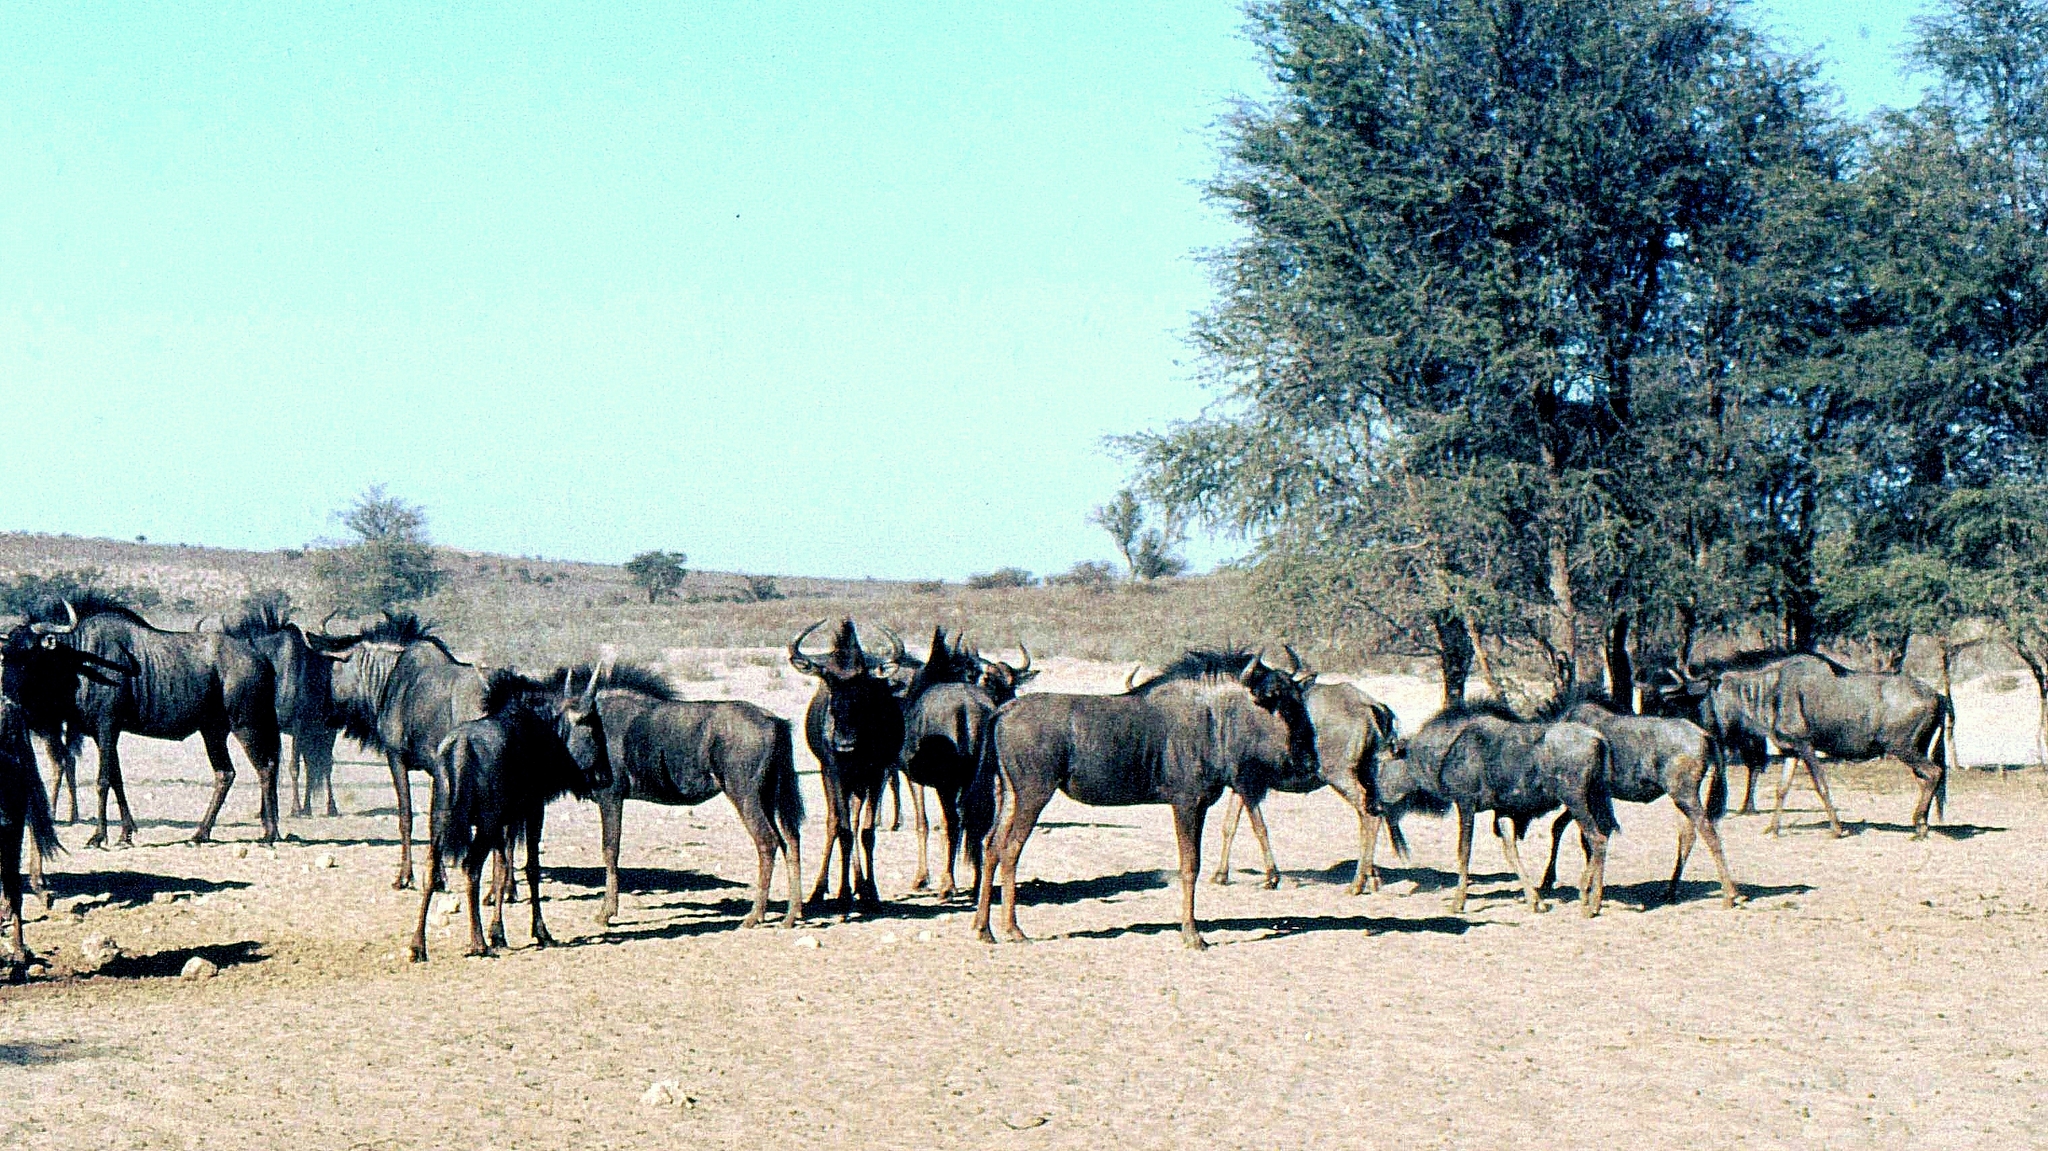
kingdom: Animalia
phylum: Chordata
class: Mammalia
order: Artiodactyla
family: Bovidae
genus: Connochaetes
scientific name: Connochaetes taurinus
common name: Blue wildebeest
